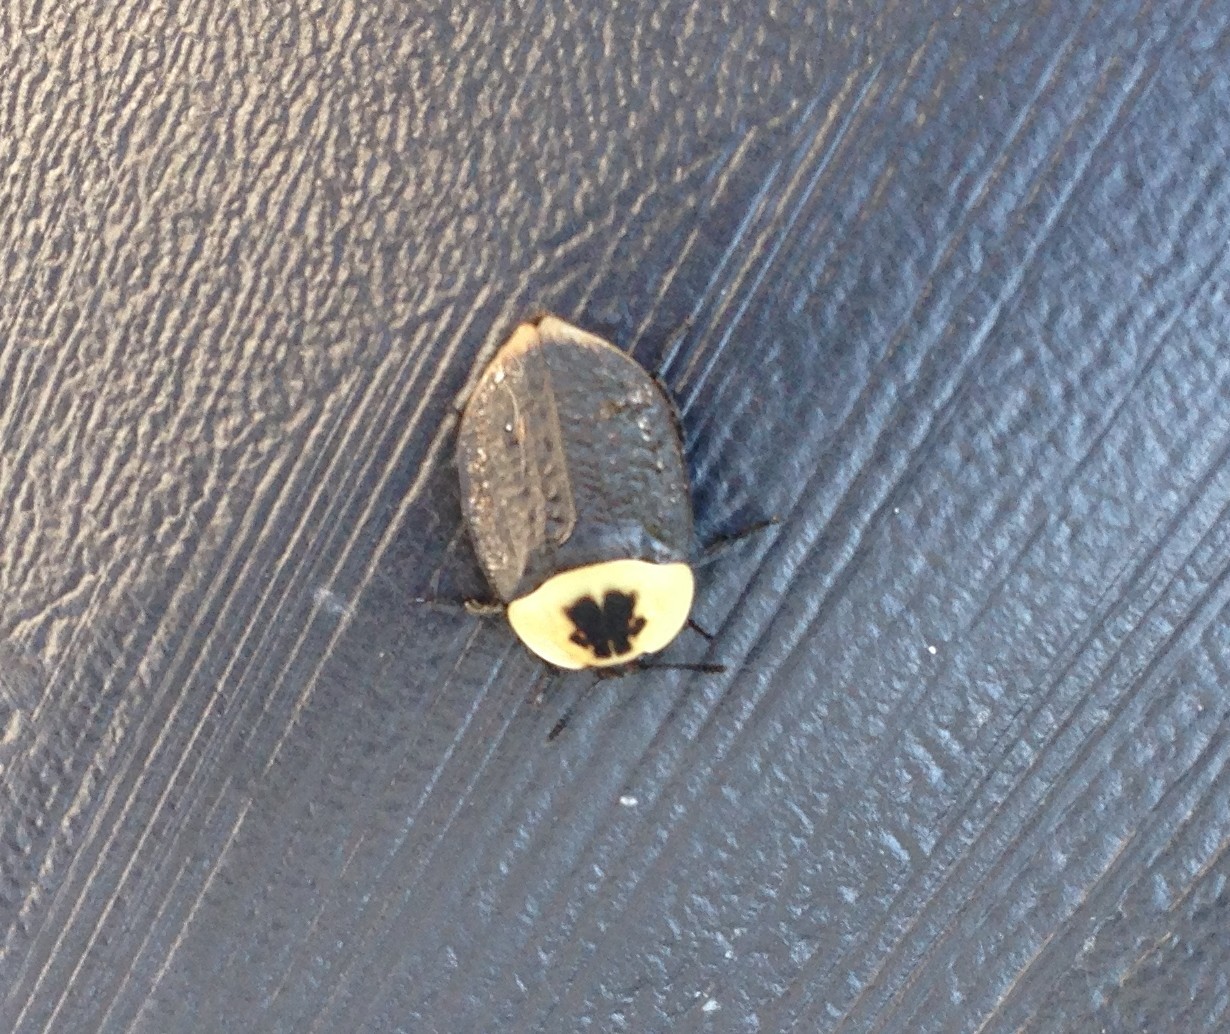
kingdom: Animalia
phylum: Arthropoda
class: Insecta
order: Coleoptera
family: Staphylinidae
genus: Necrophila
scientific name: Necrophila americana
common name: American carrion beetle
